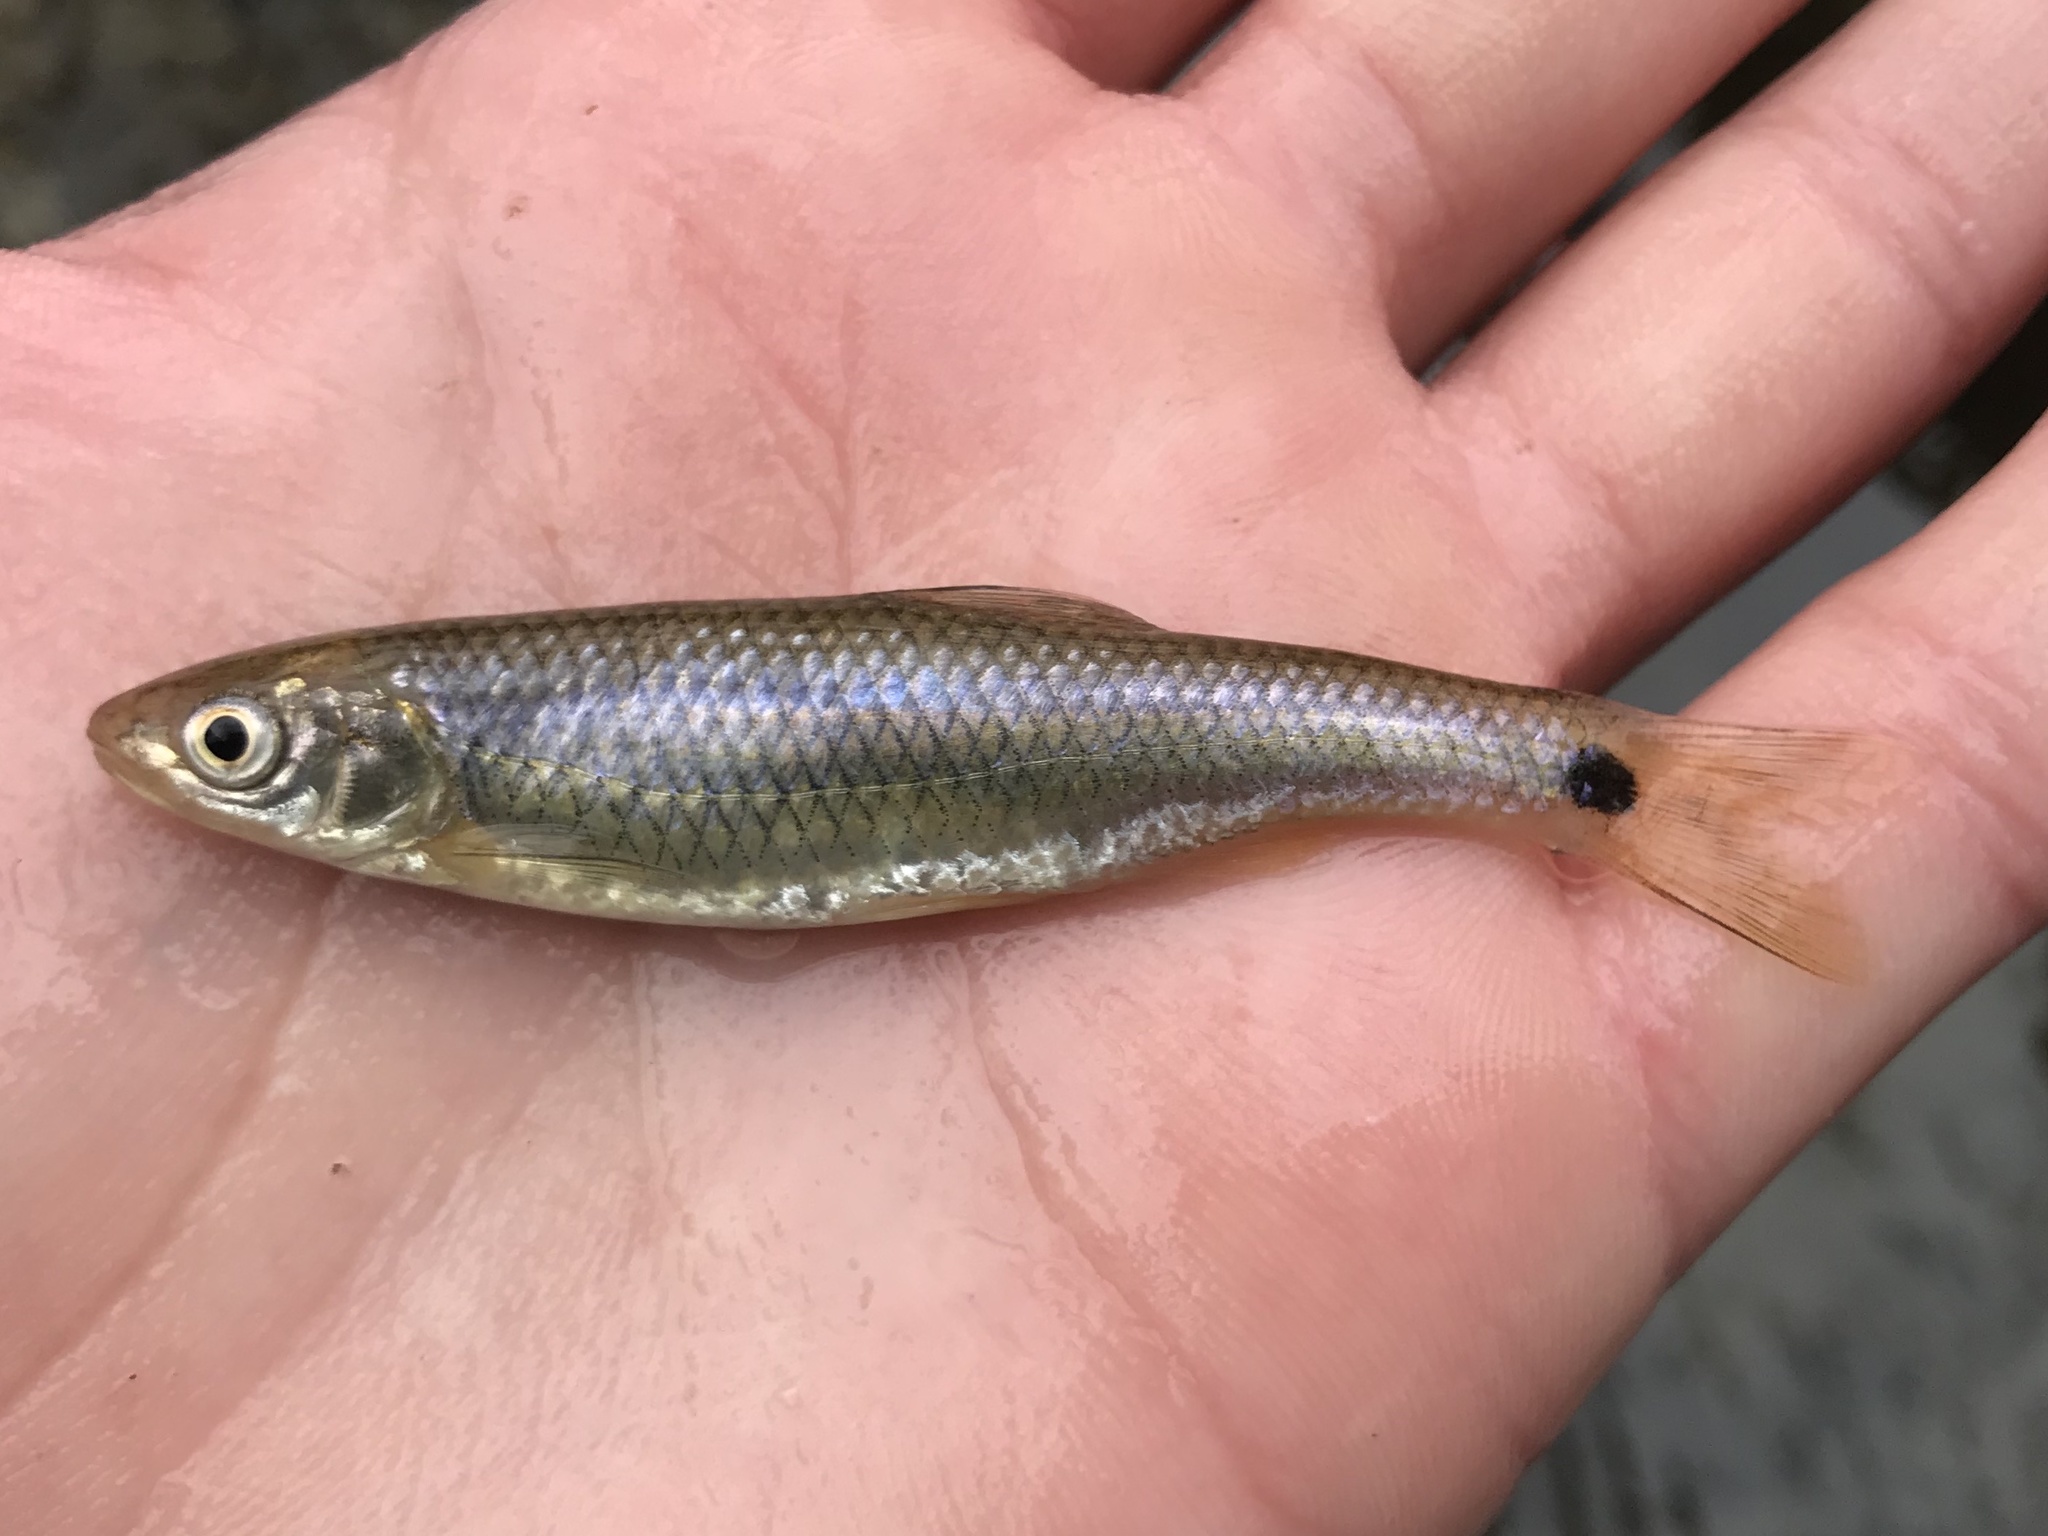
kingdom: Animalia
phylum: Chordata
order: Cypriniformes
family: Cyprinidae
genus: Cyprinella
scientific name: Cyprinella venusta
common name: Blacktail shiner
